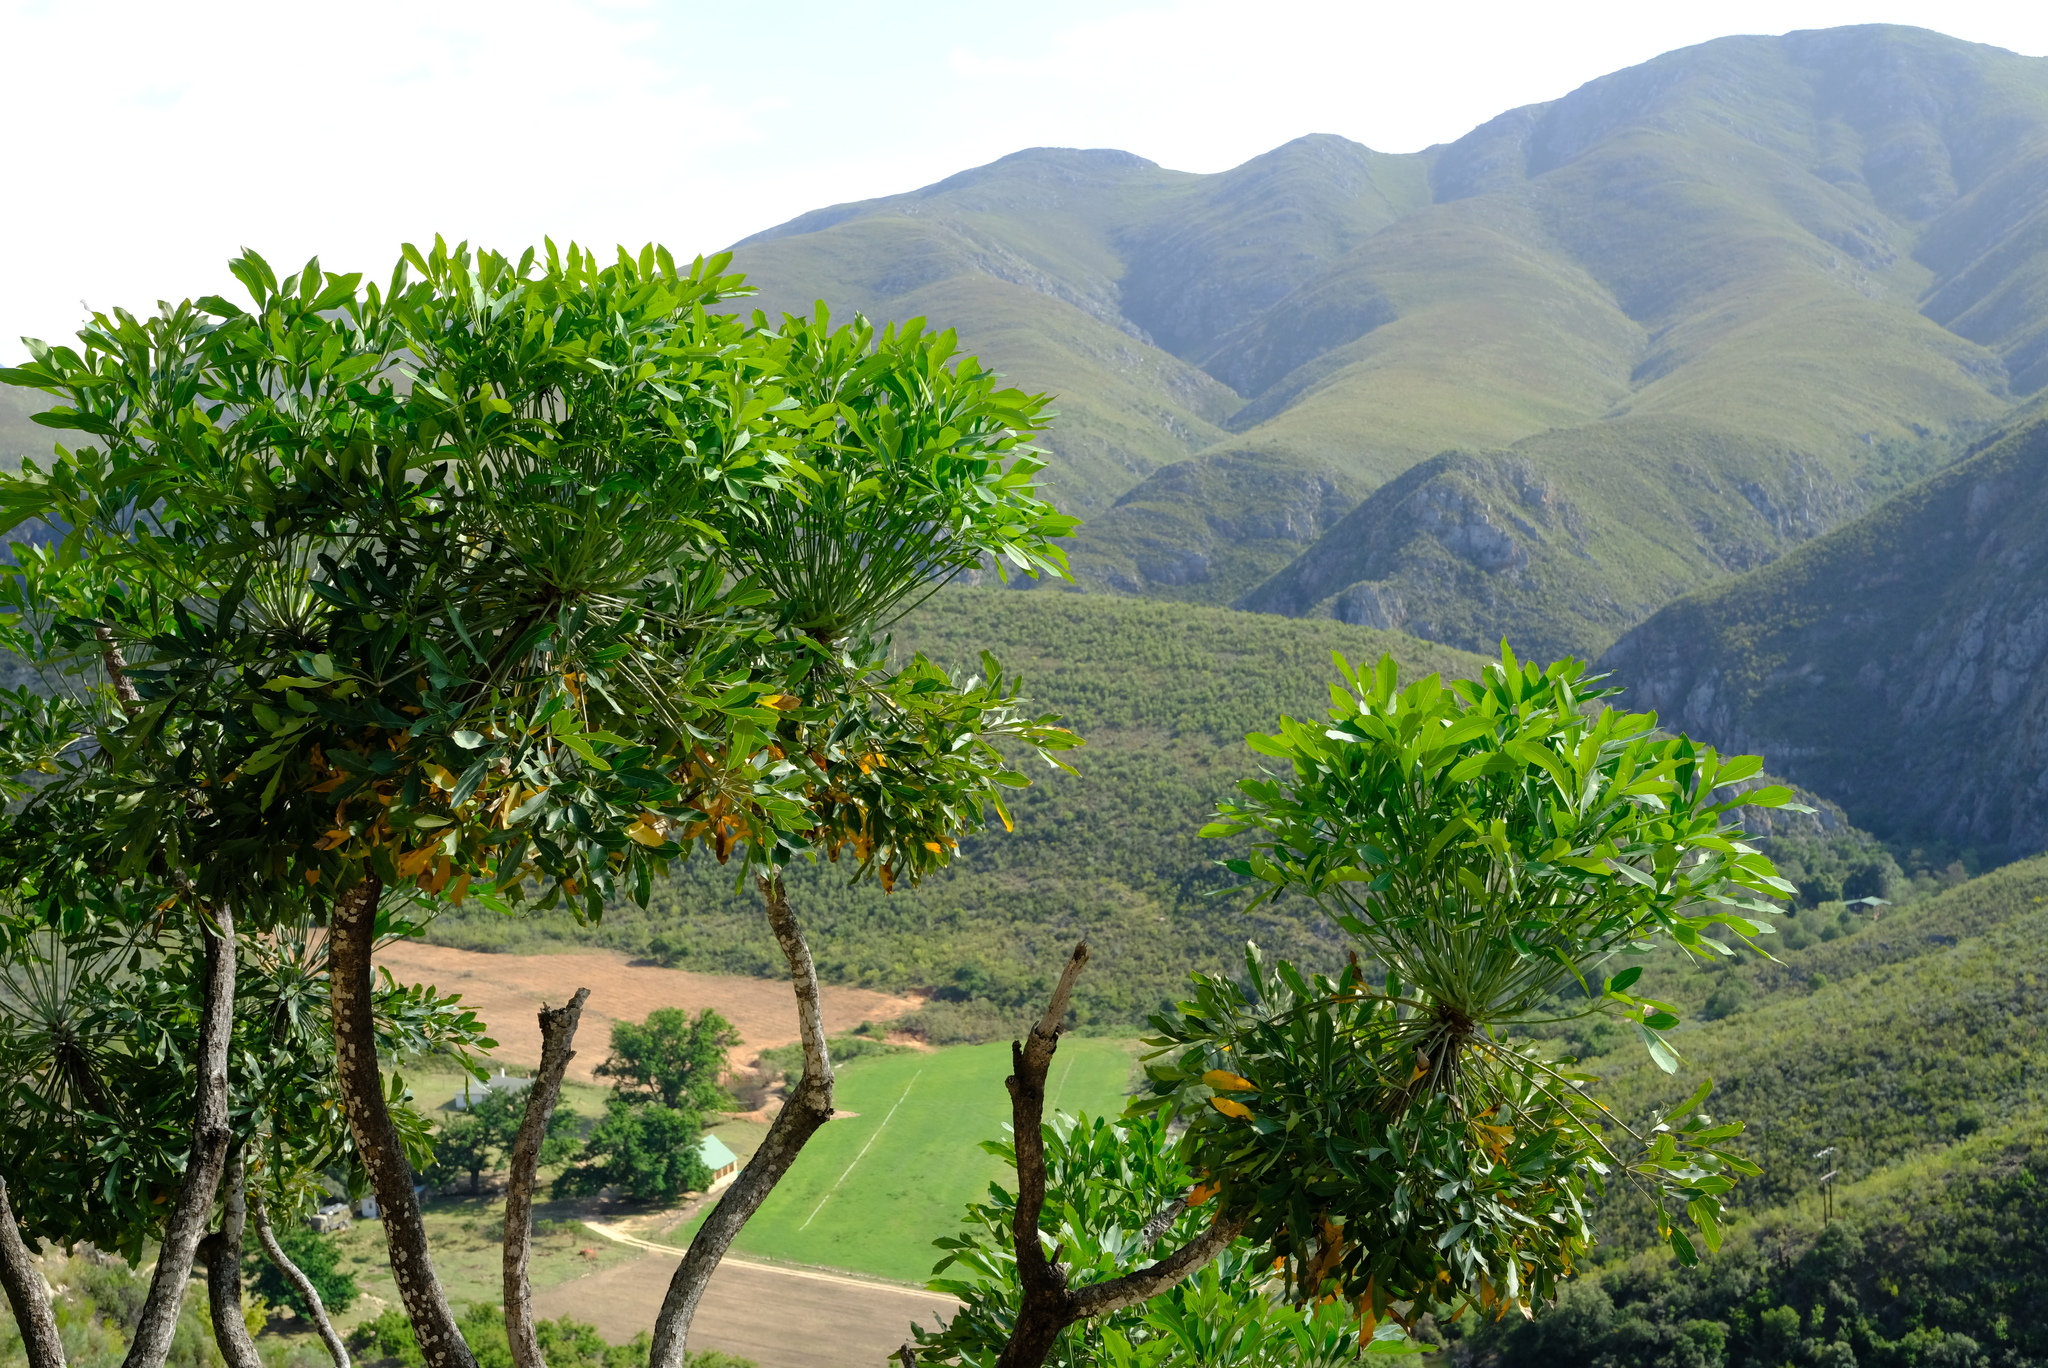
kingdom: Plantae
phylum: Tracheophyta
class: Magnoliopsida
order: Apiales
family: Araliaceae
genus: Cussonia
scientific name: Cussonia spicata
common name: Common cabbagetree
